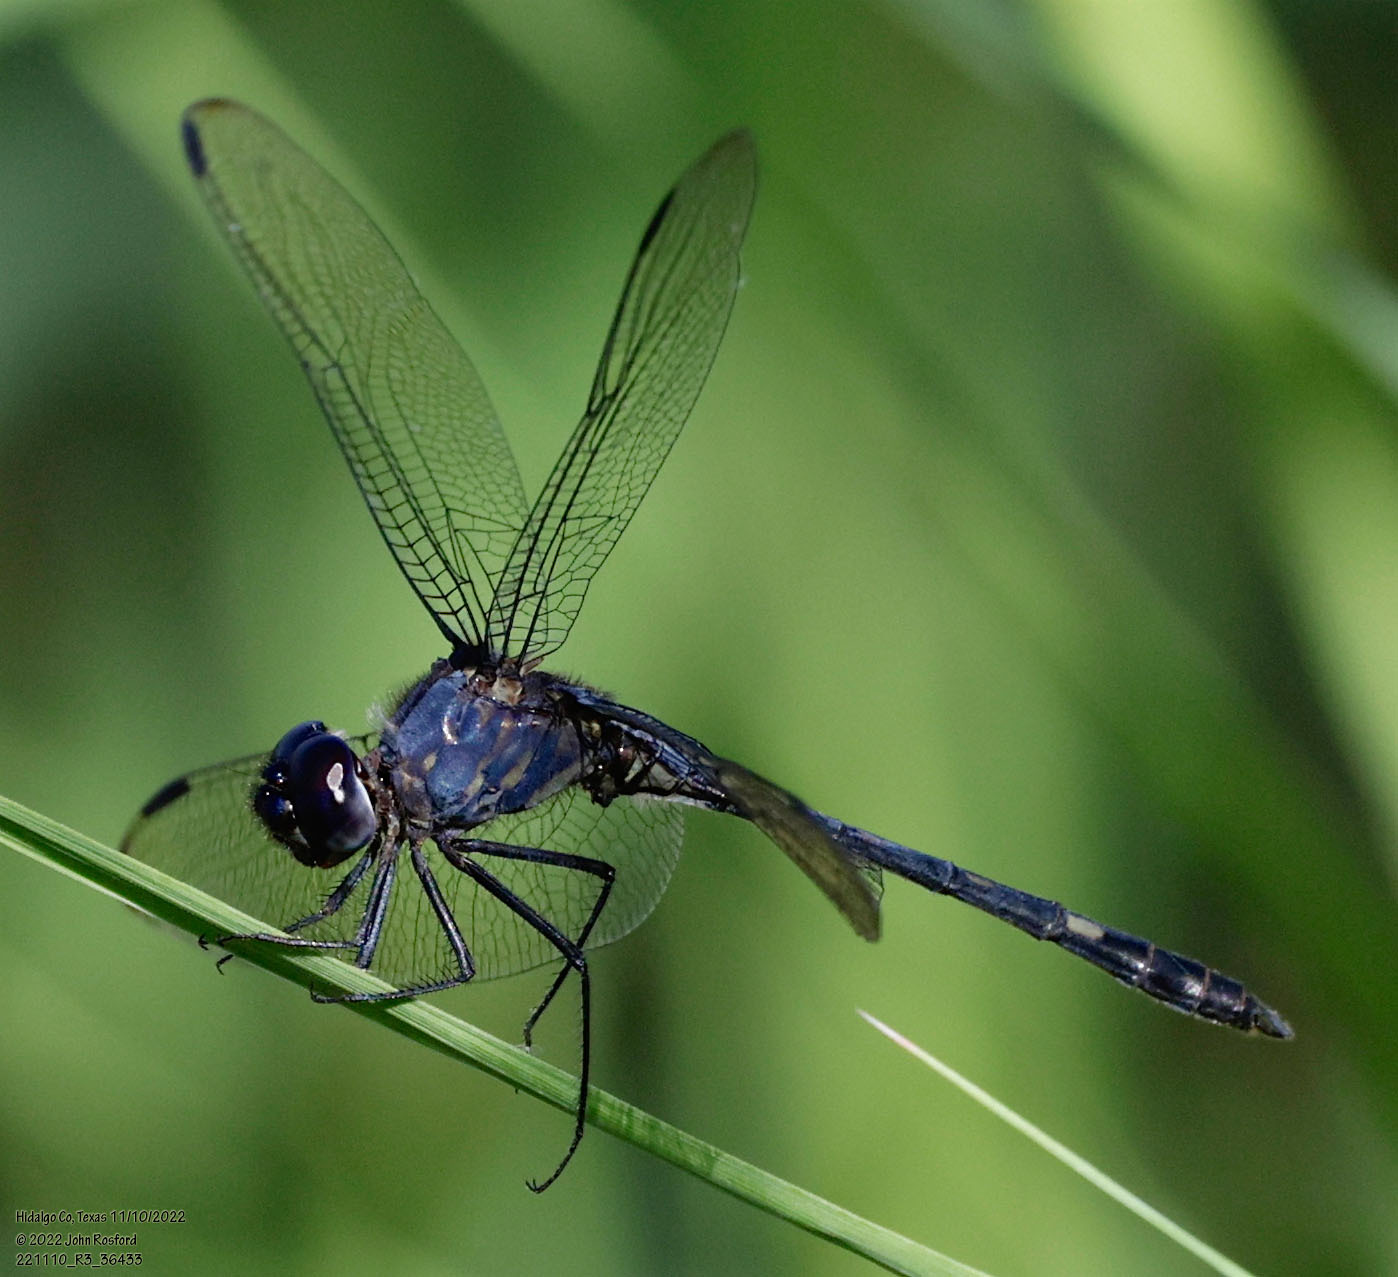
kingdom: Animalia
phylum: Arthropoda
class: Insecta
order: Odonata
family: Libellulidae
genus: Dythemis
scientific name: Dythemis nigrescens
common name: Black setwing
